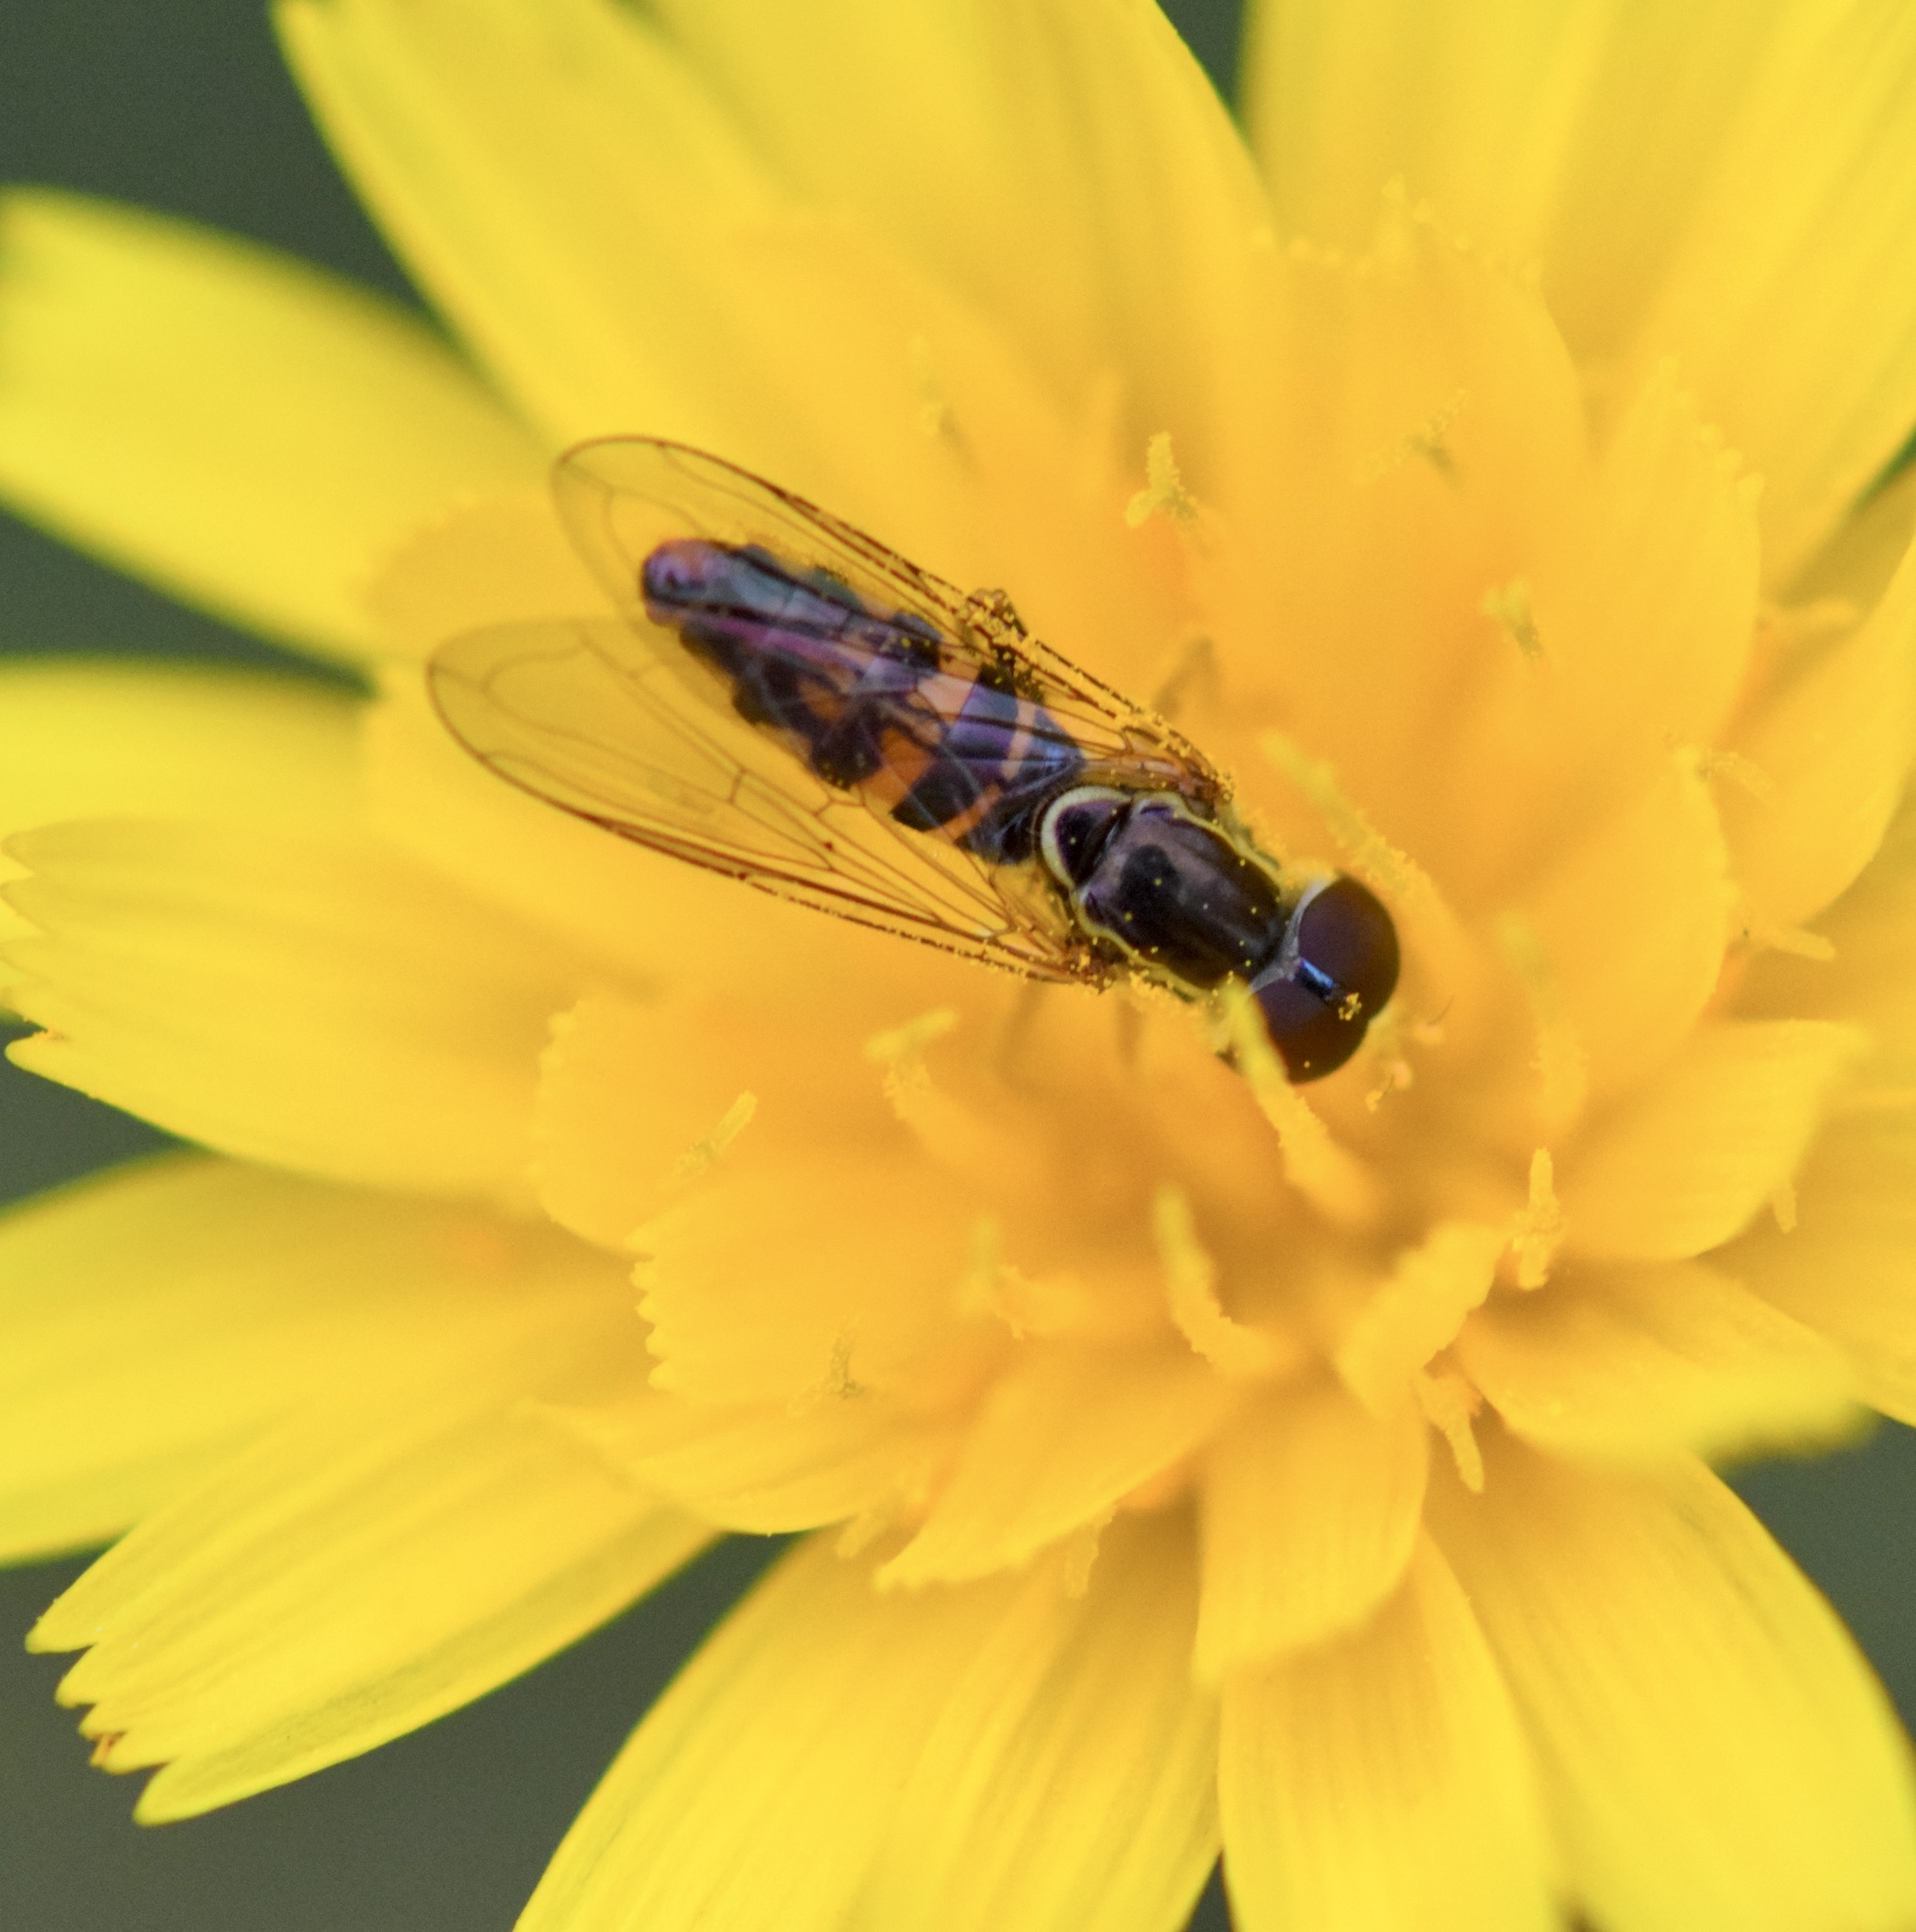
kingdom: Animalia
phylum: Arthropoda
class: Insecta
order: Diptera
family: Syrphidae
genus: Toxomerus
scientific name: Toxomerus geminatus
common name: Eastern calligrapher
